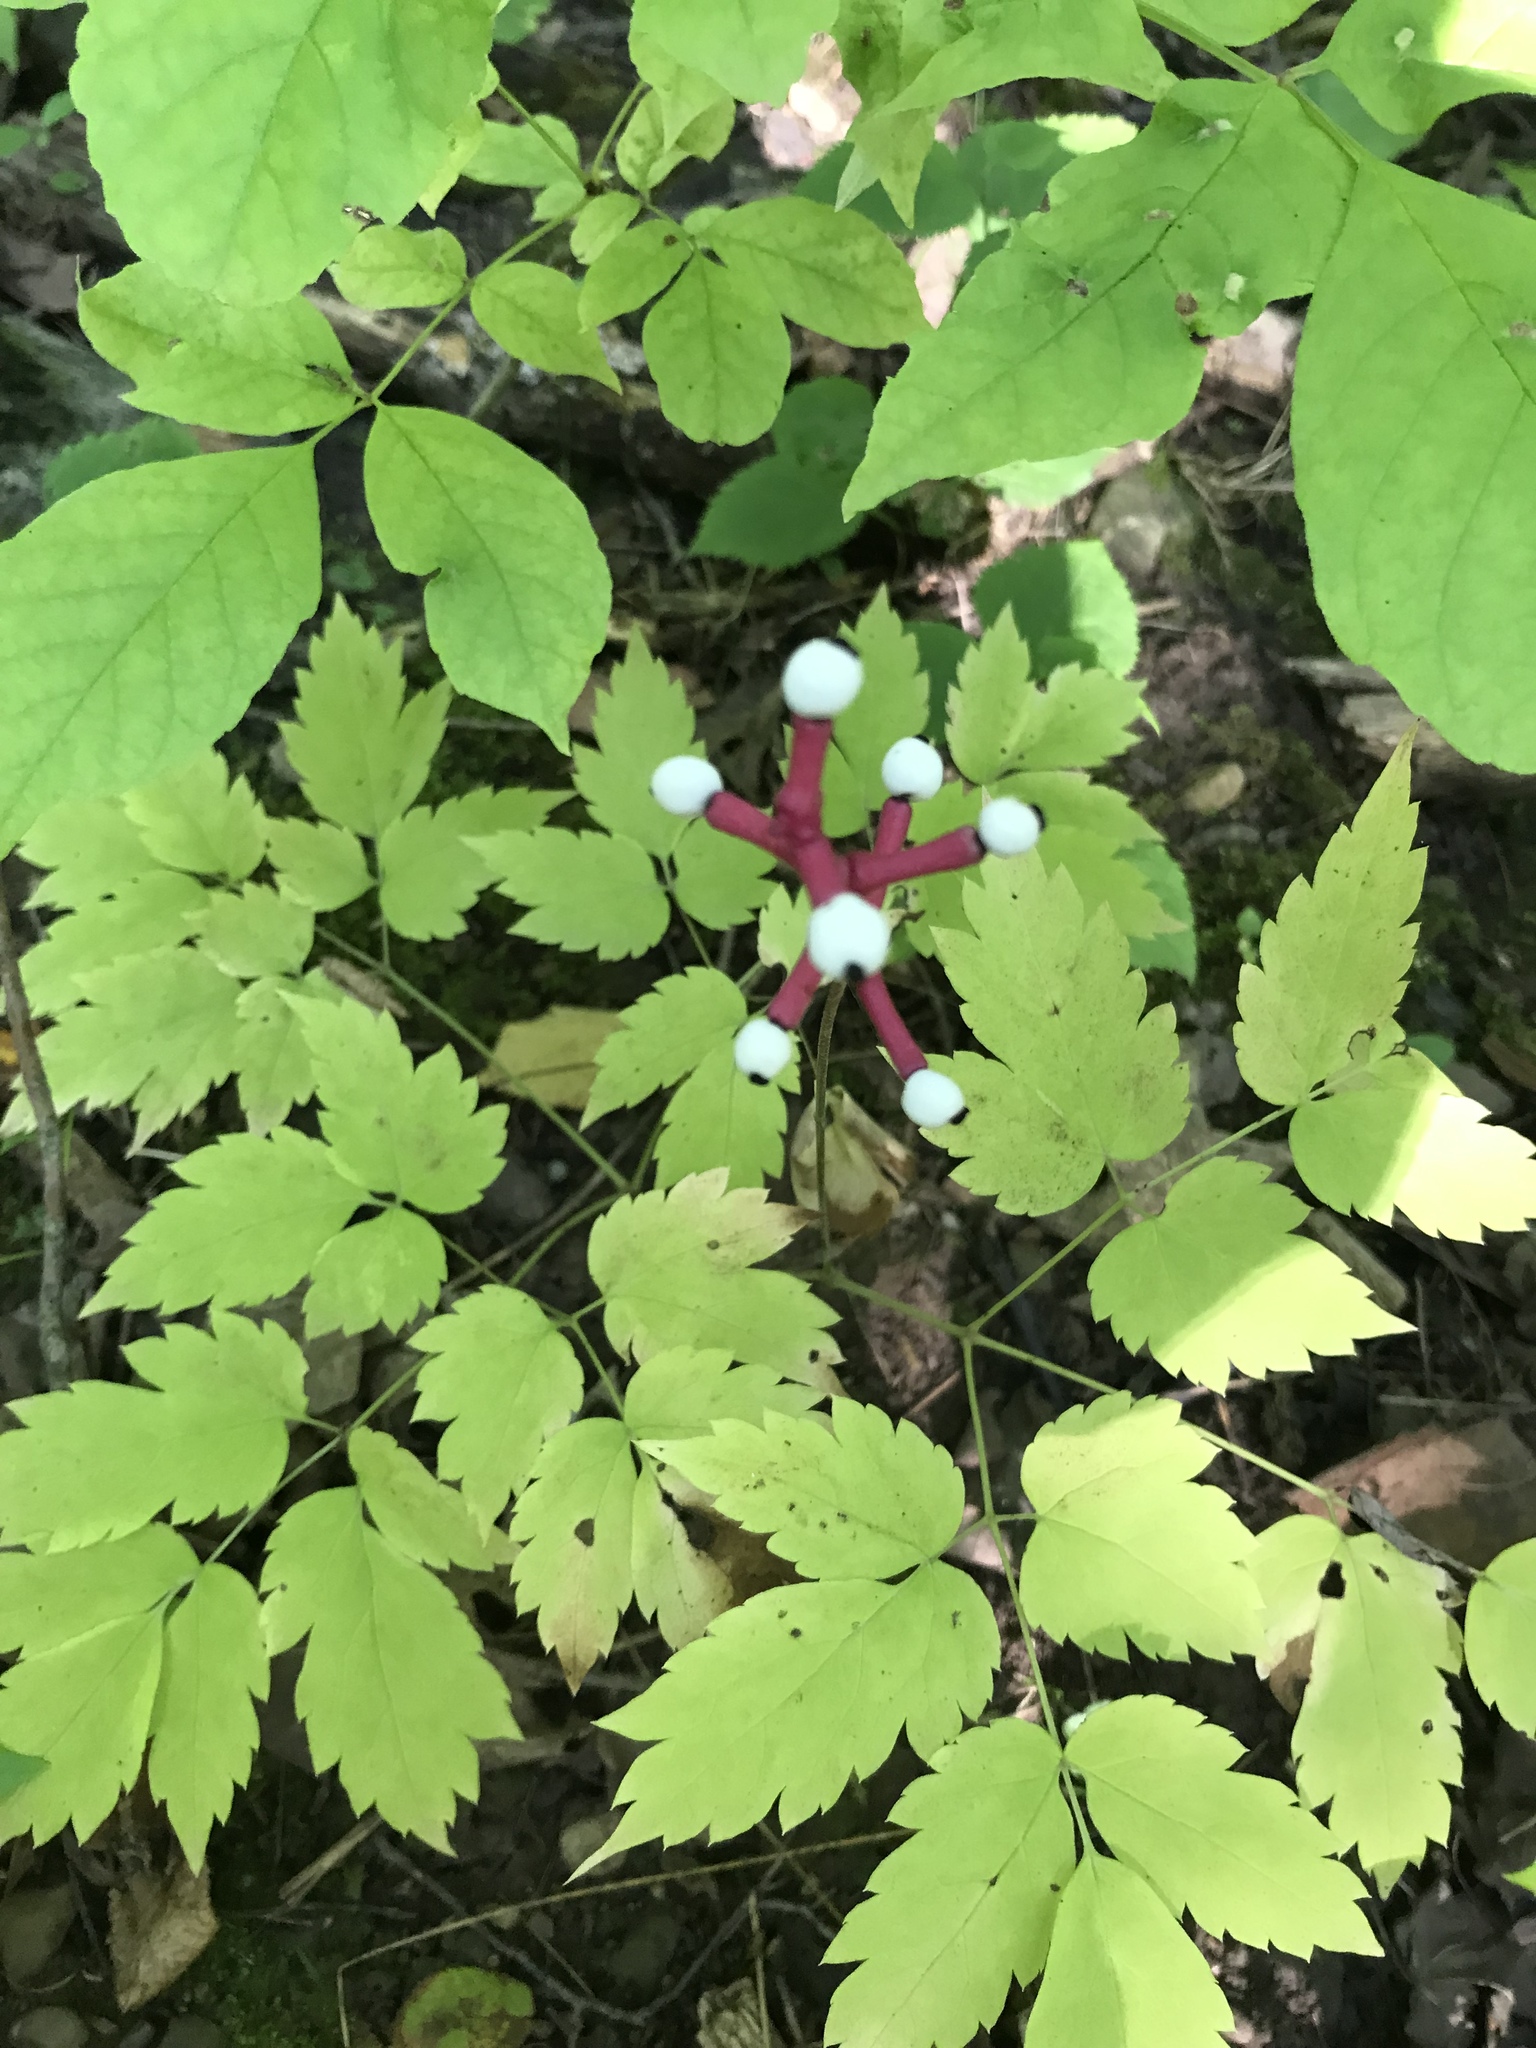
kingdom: Plantae
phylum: Tracheophyta
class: Magnoliopsida
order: Ranunculales
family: Ranunculaceae
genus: Actaea
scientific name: Actaea pachypoda
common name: Doll's-eyes
